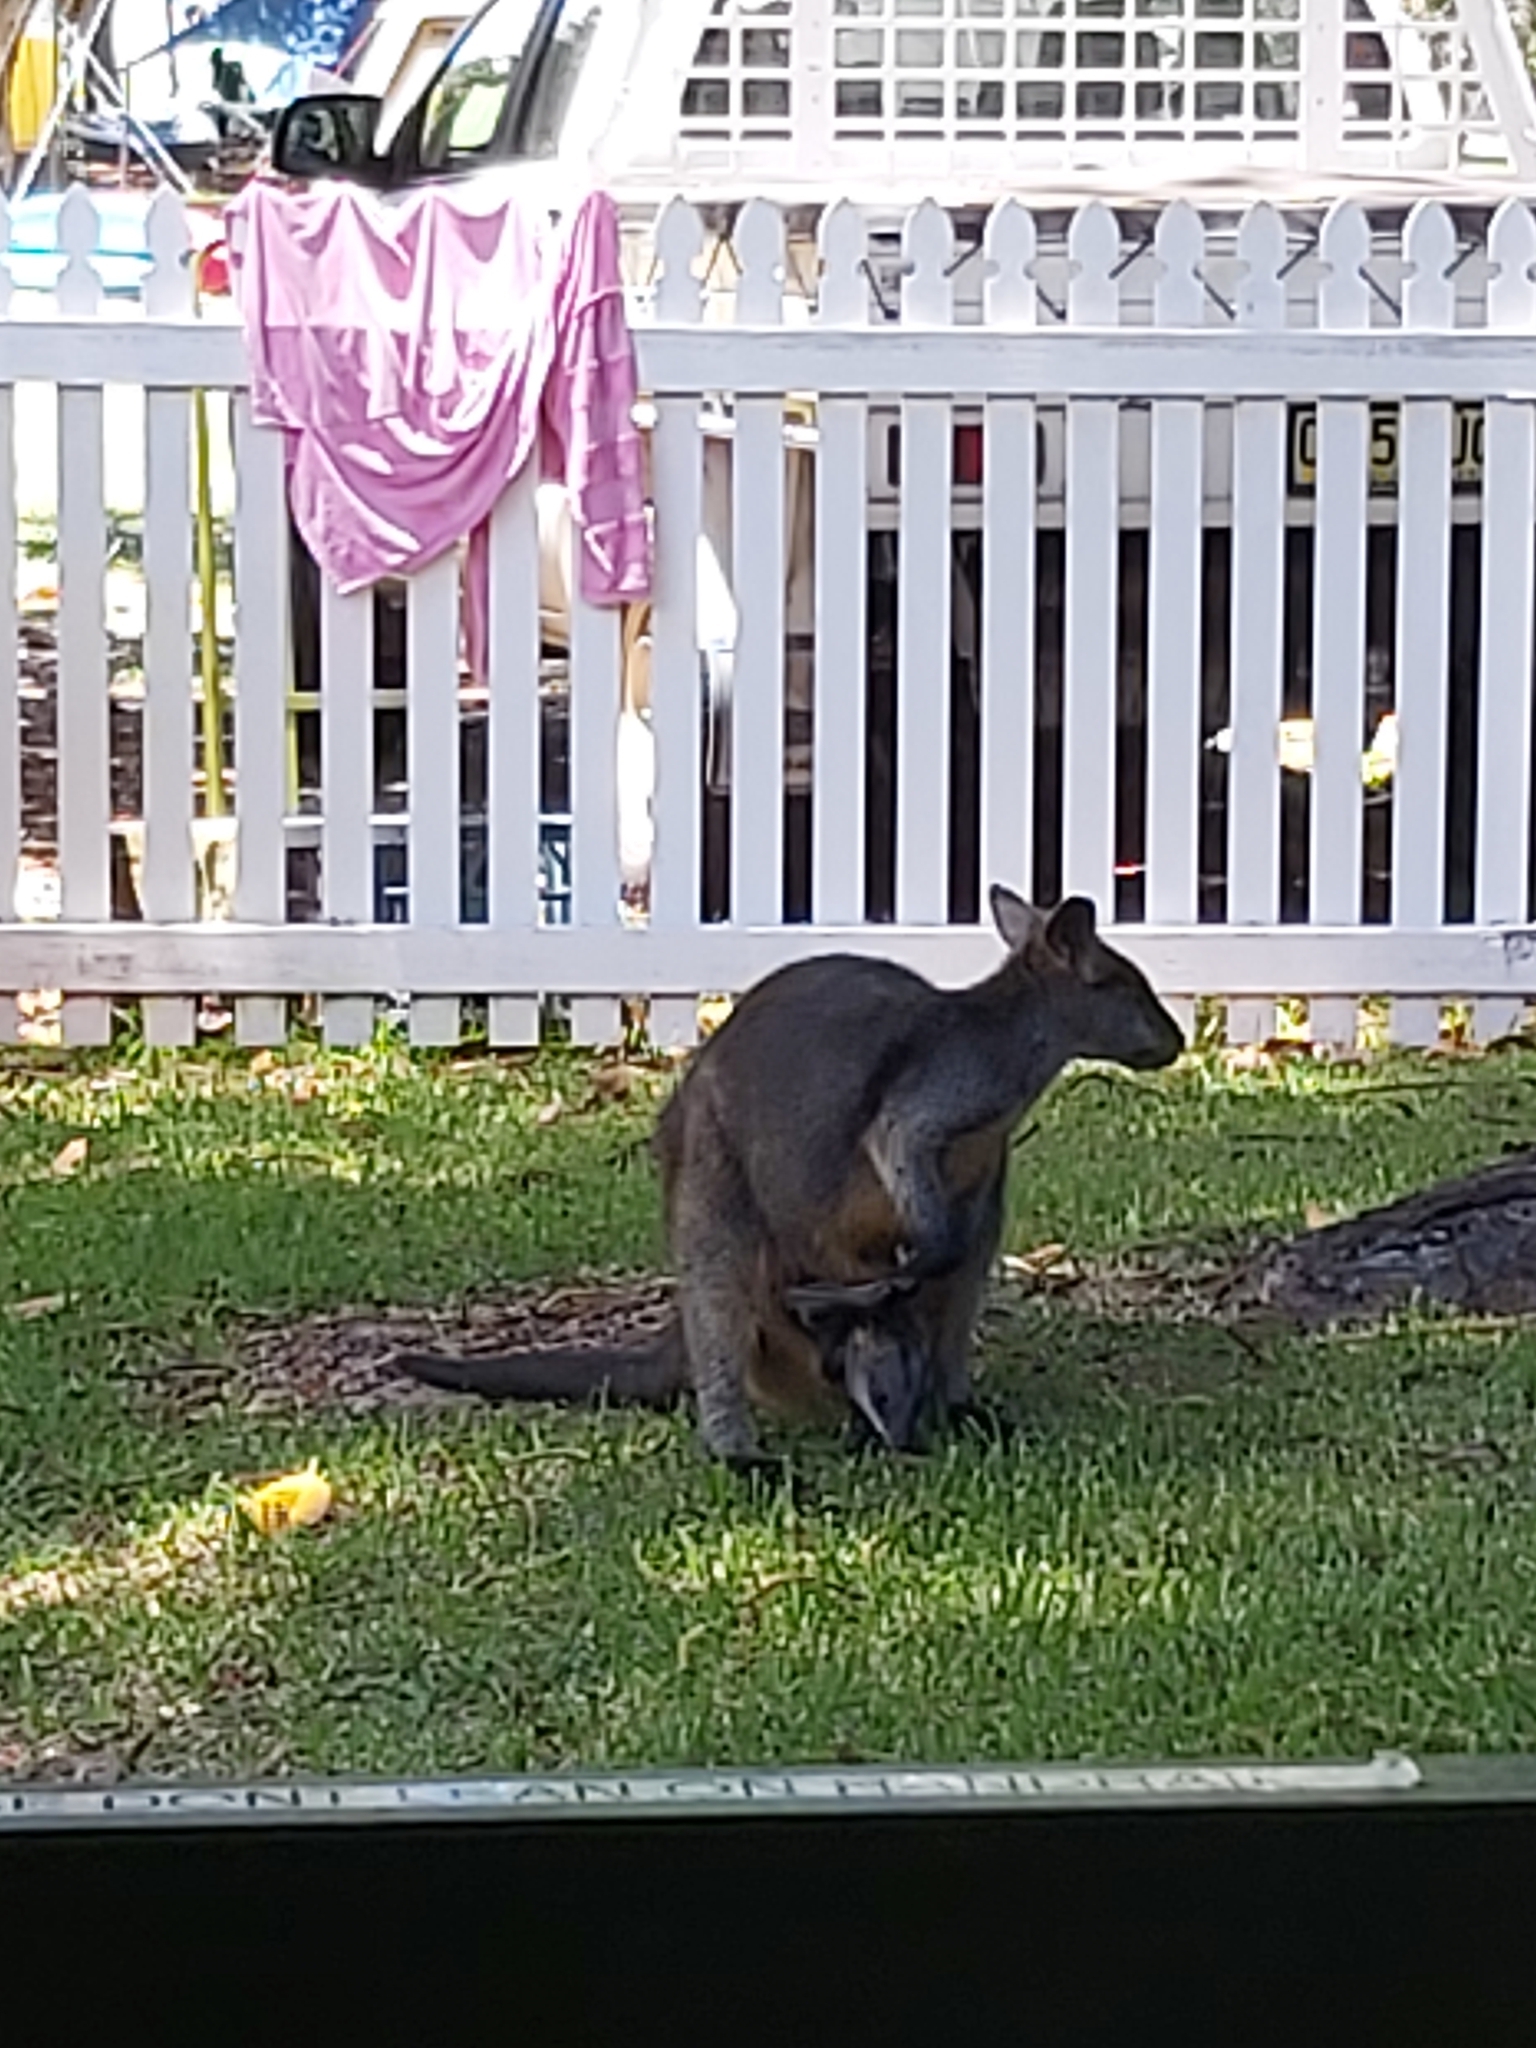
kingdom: Animalia
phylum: Chordata
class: Mammalia
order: Diprotodontia
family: Macropodidae
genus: Wallabia
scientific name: Wallabia bicolor
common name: Swamp wallaby
